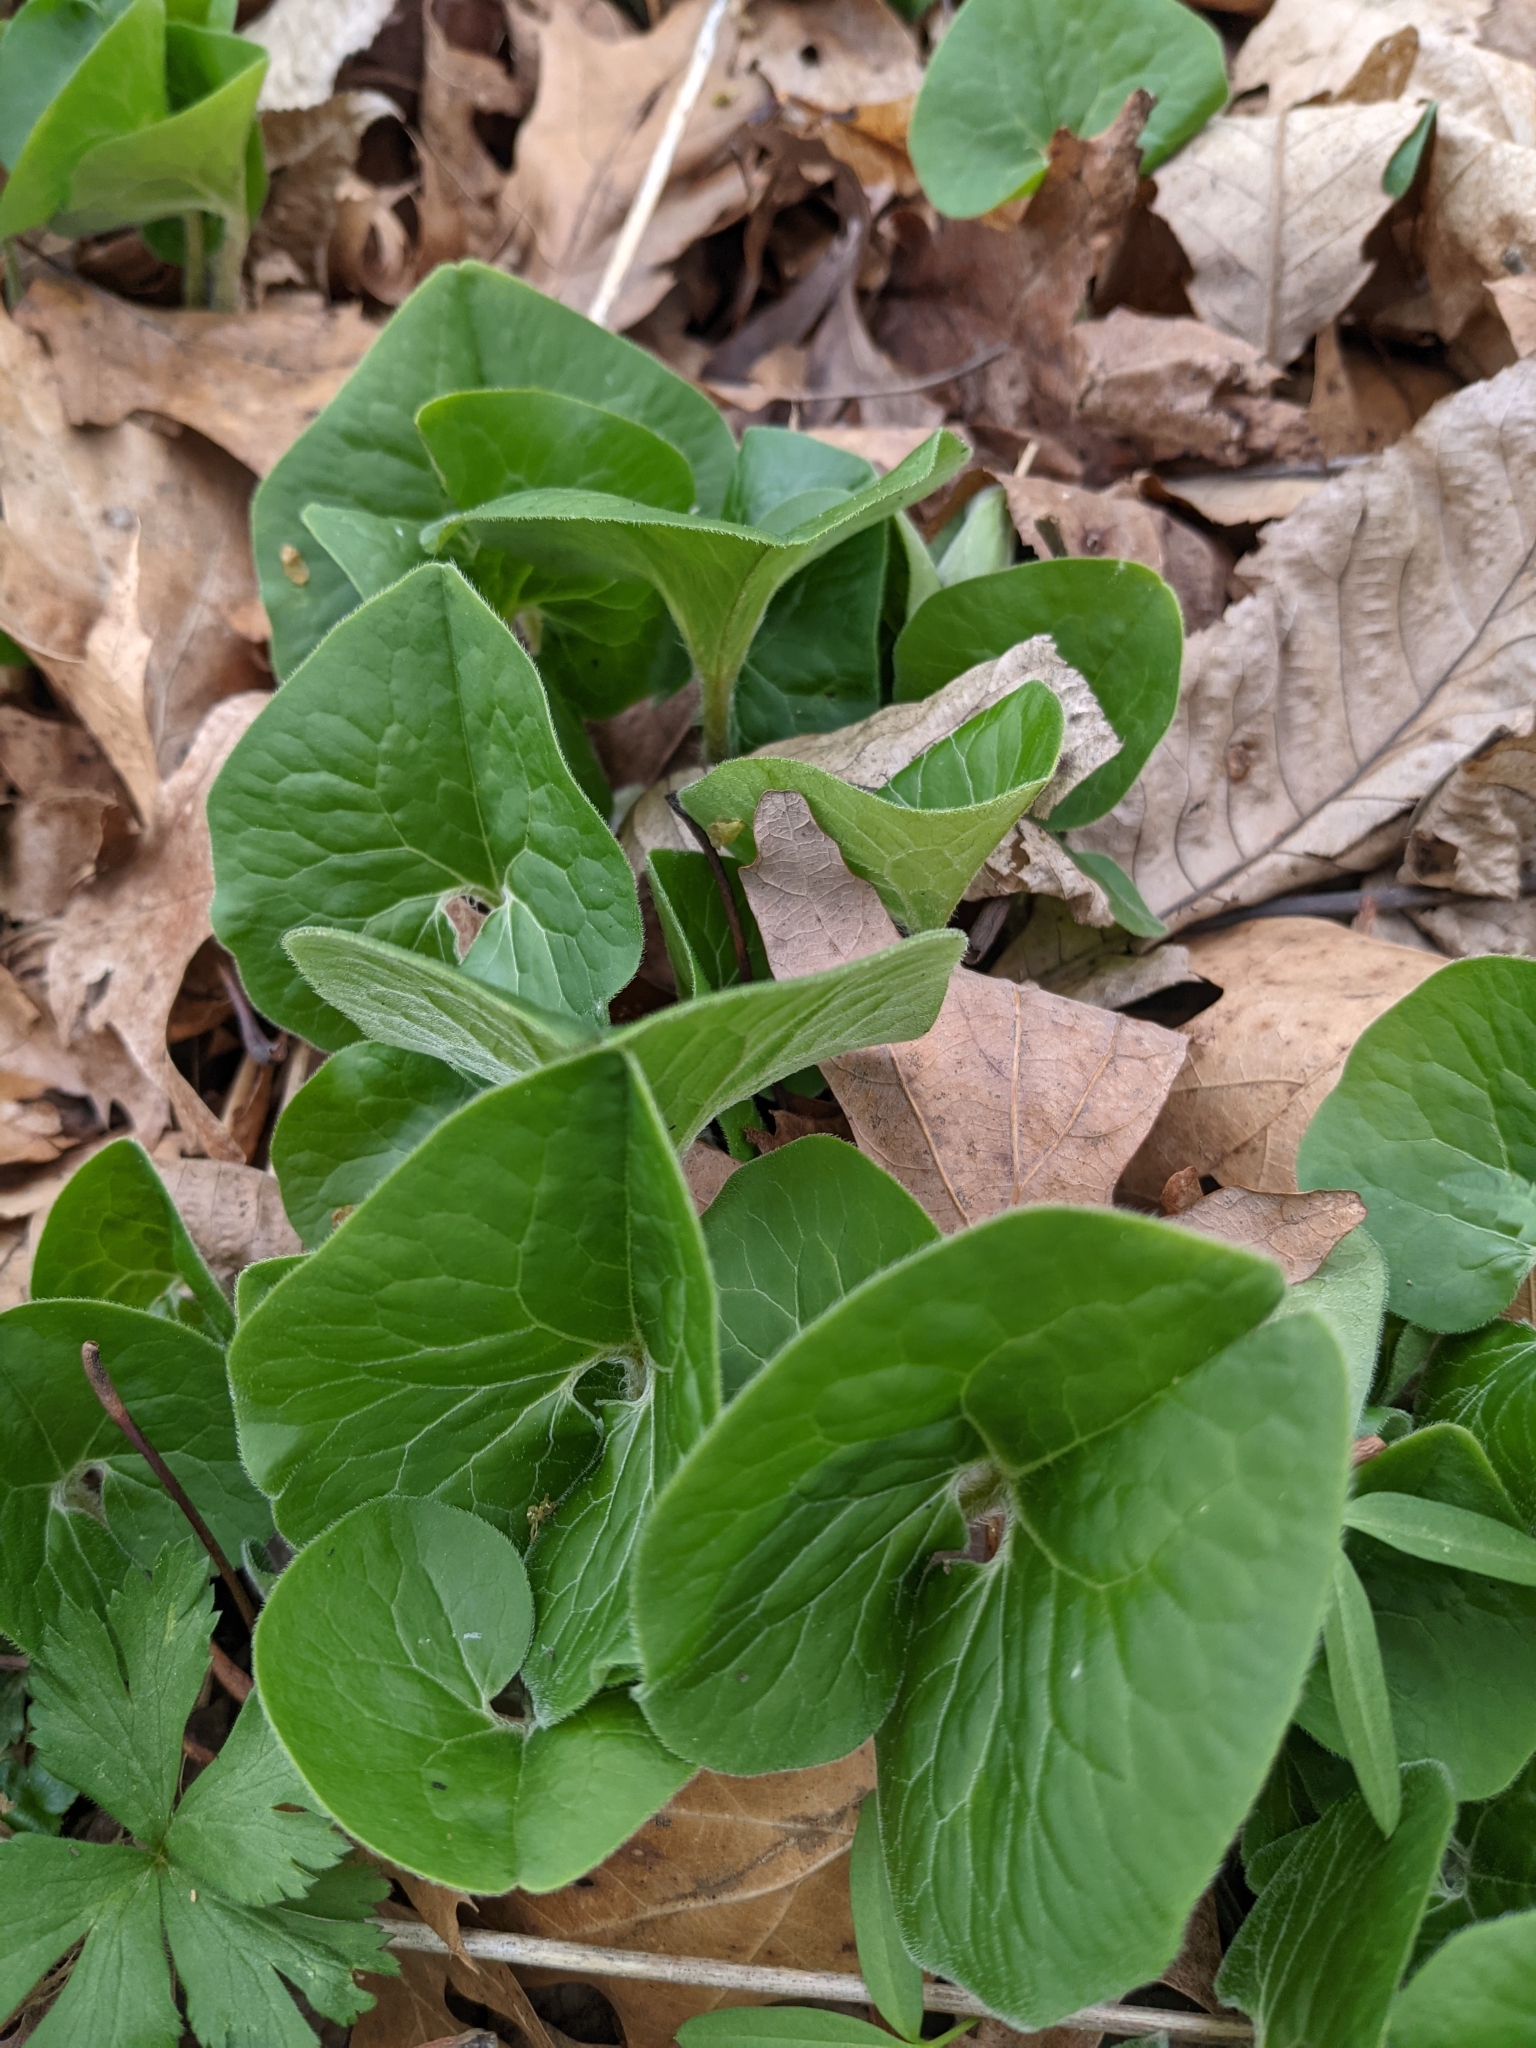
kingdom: Plantae
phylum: Tracheophyta
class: Magnoliopsida
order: Piperales
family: Aristolochiaceae
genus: Asarum
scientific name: Asarum canadense
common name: Wild ginger
